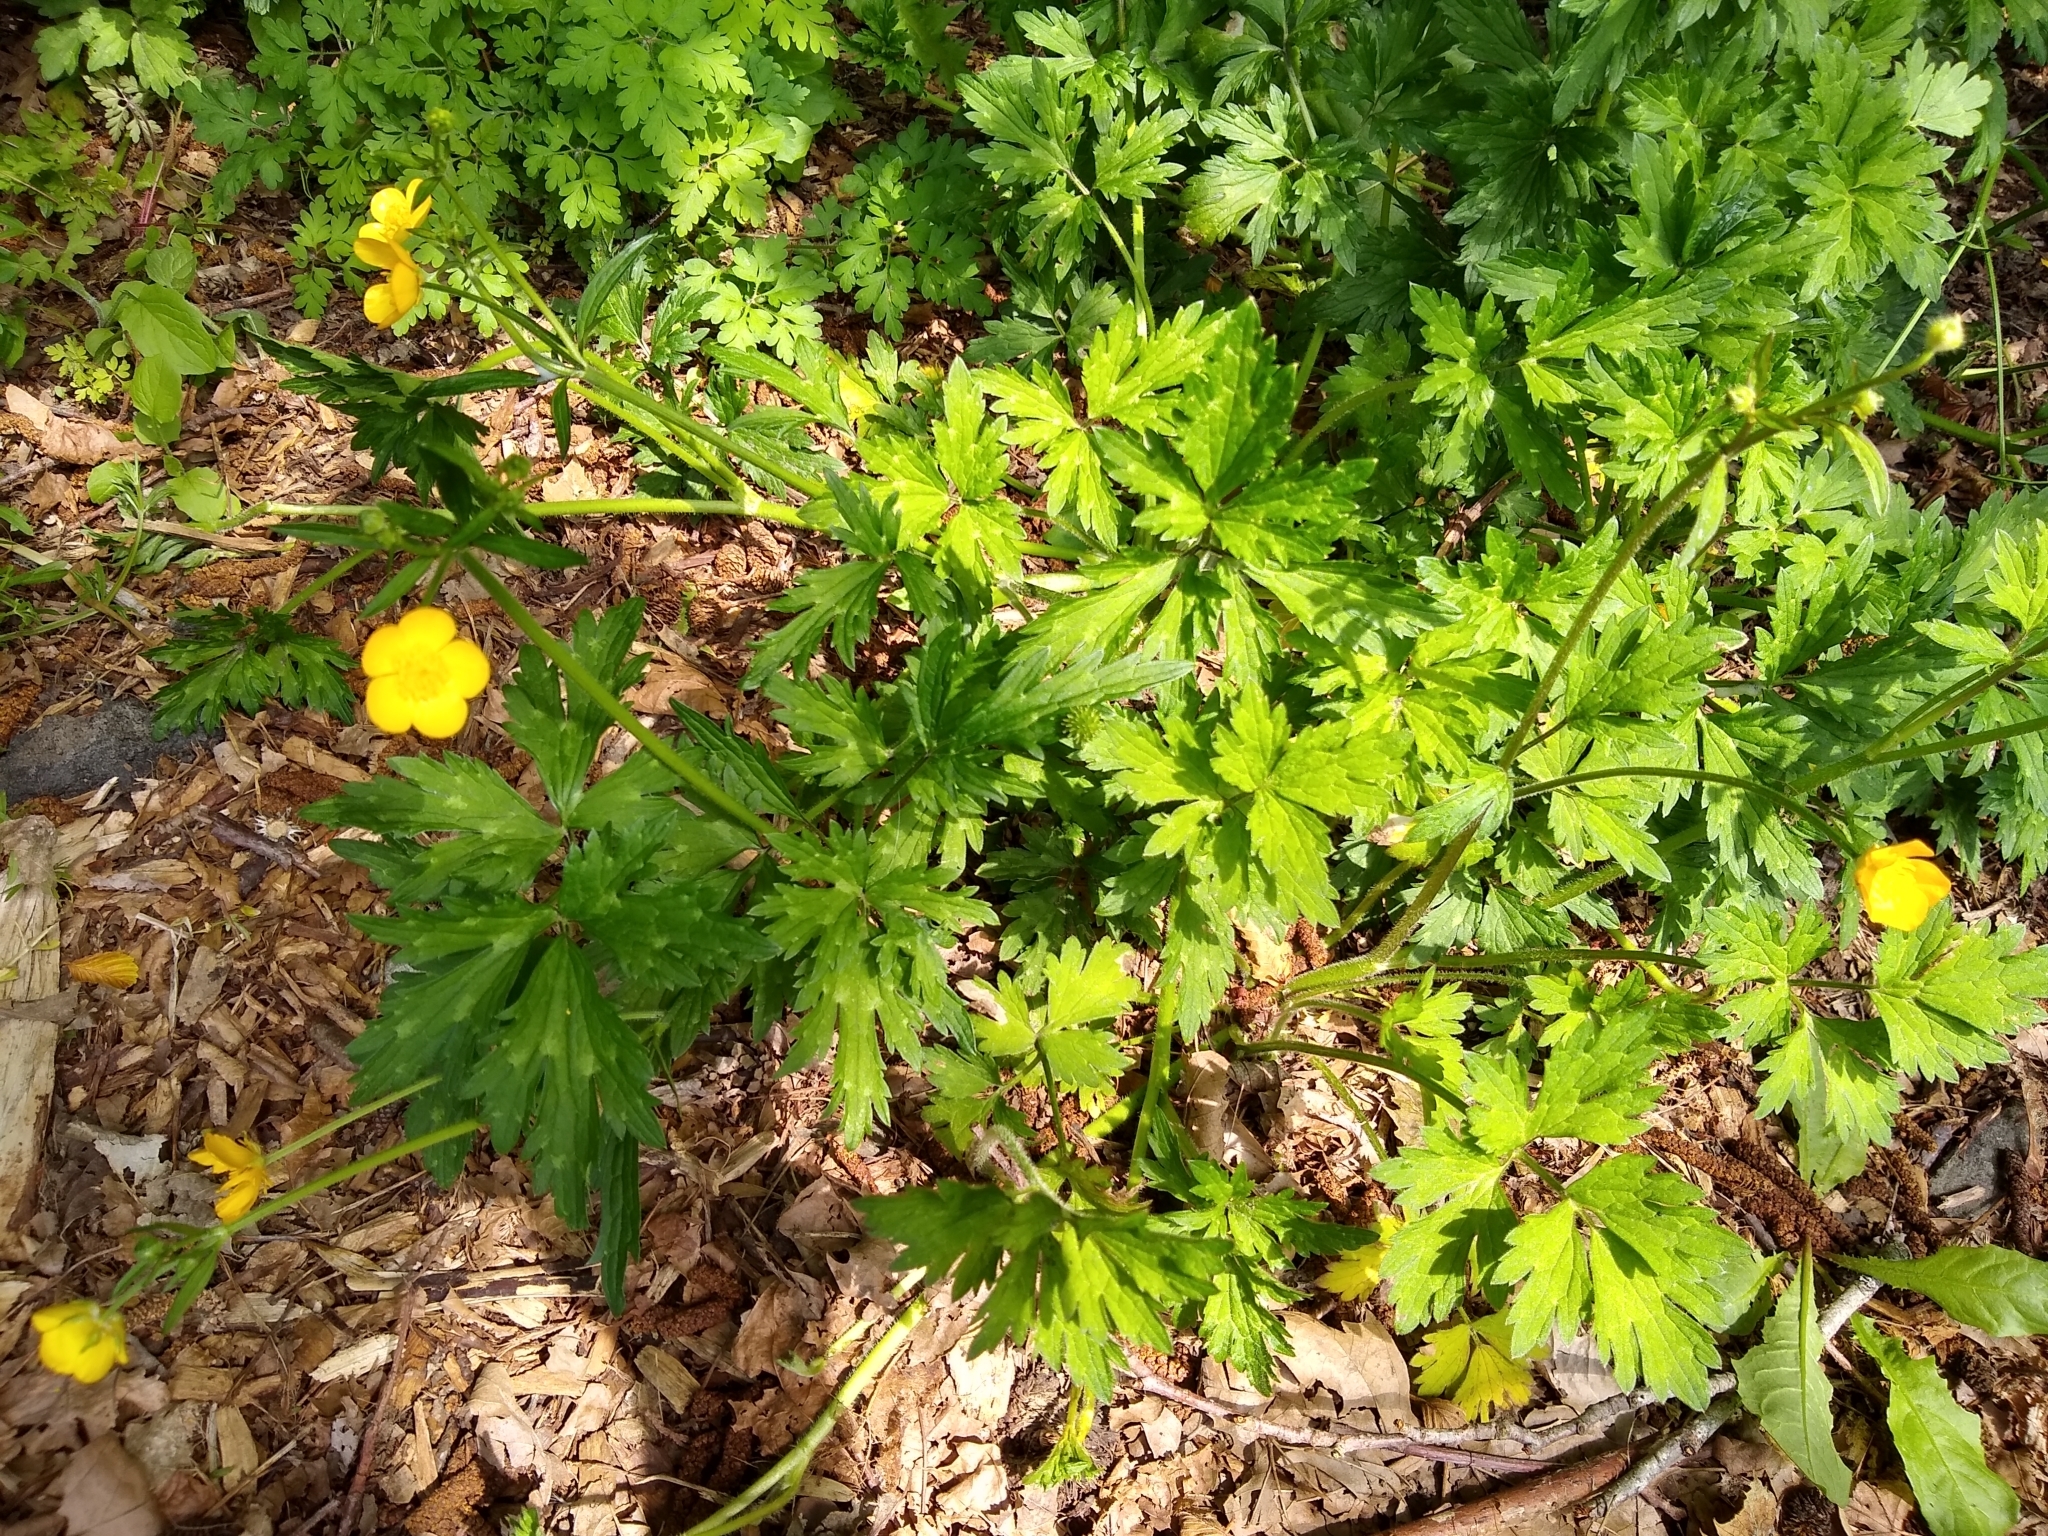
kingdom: Plantae
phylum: Tracheophyta
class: Magnoliopsida
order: Ranunculales
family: Ranunculaceae
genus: Ranunculus
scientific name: Ranunculus repens
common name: Creeping buttercup
